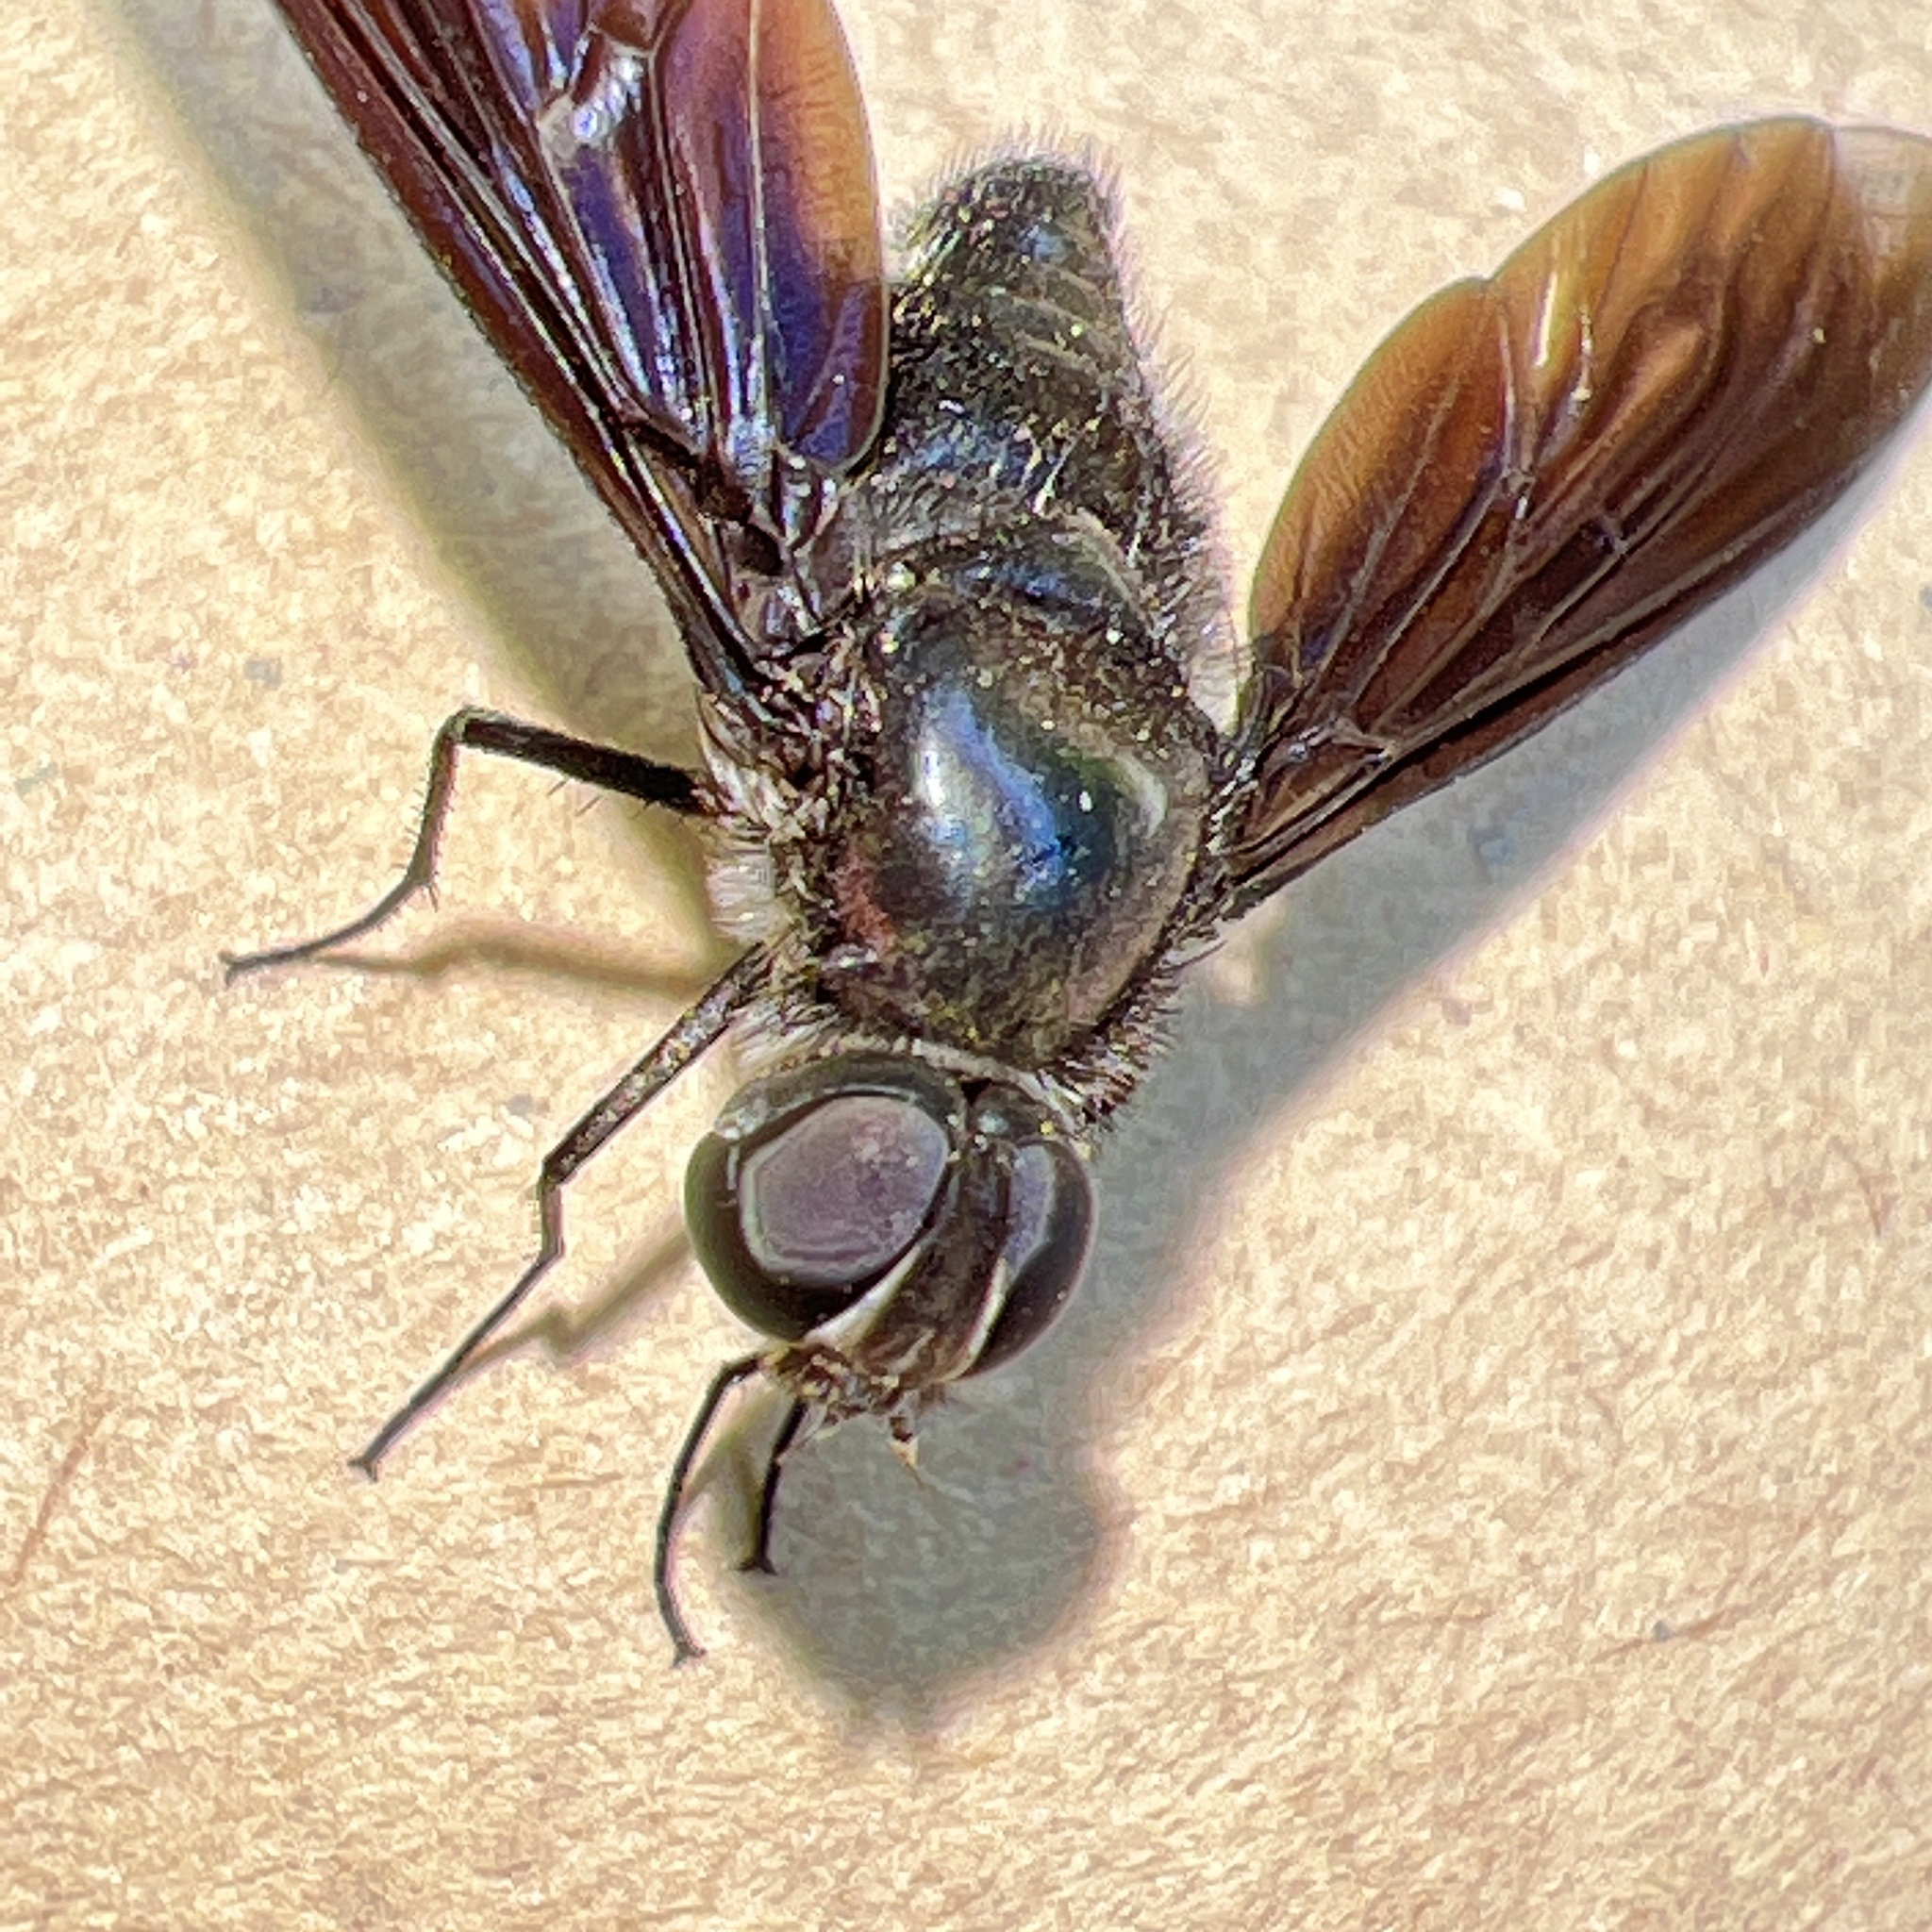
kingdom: Animalia
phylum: Arthropoda
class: Insecta
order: Diptera
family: Bombyliidae
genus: Brachyanax
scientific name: Brachyanax aterrimus
